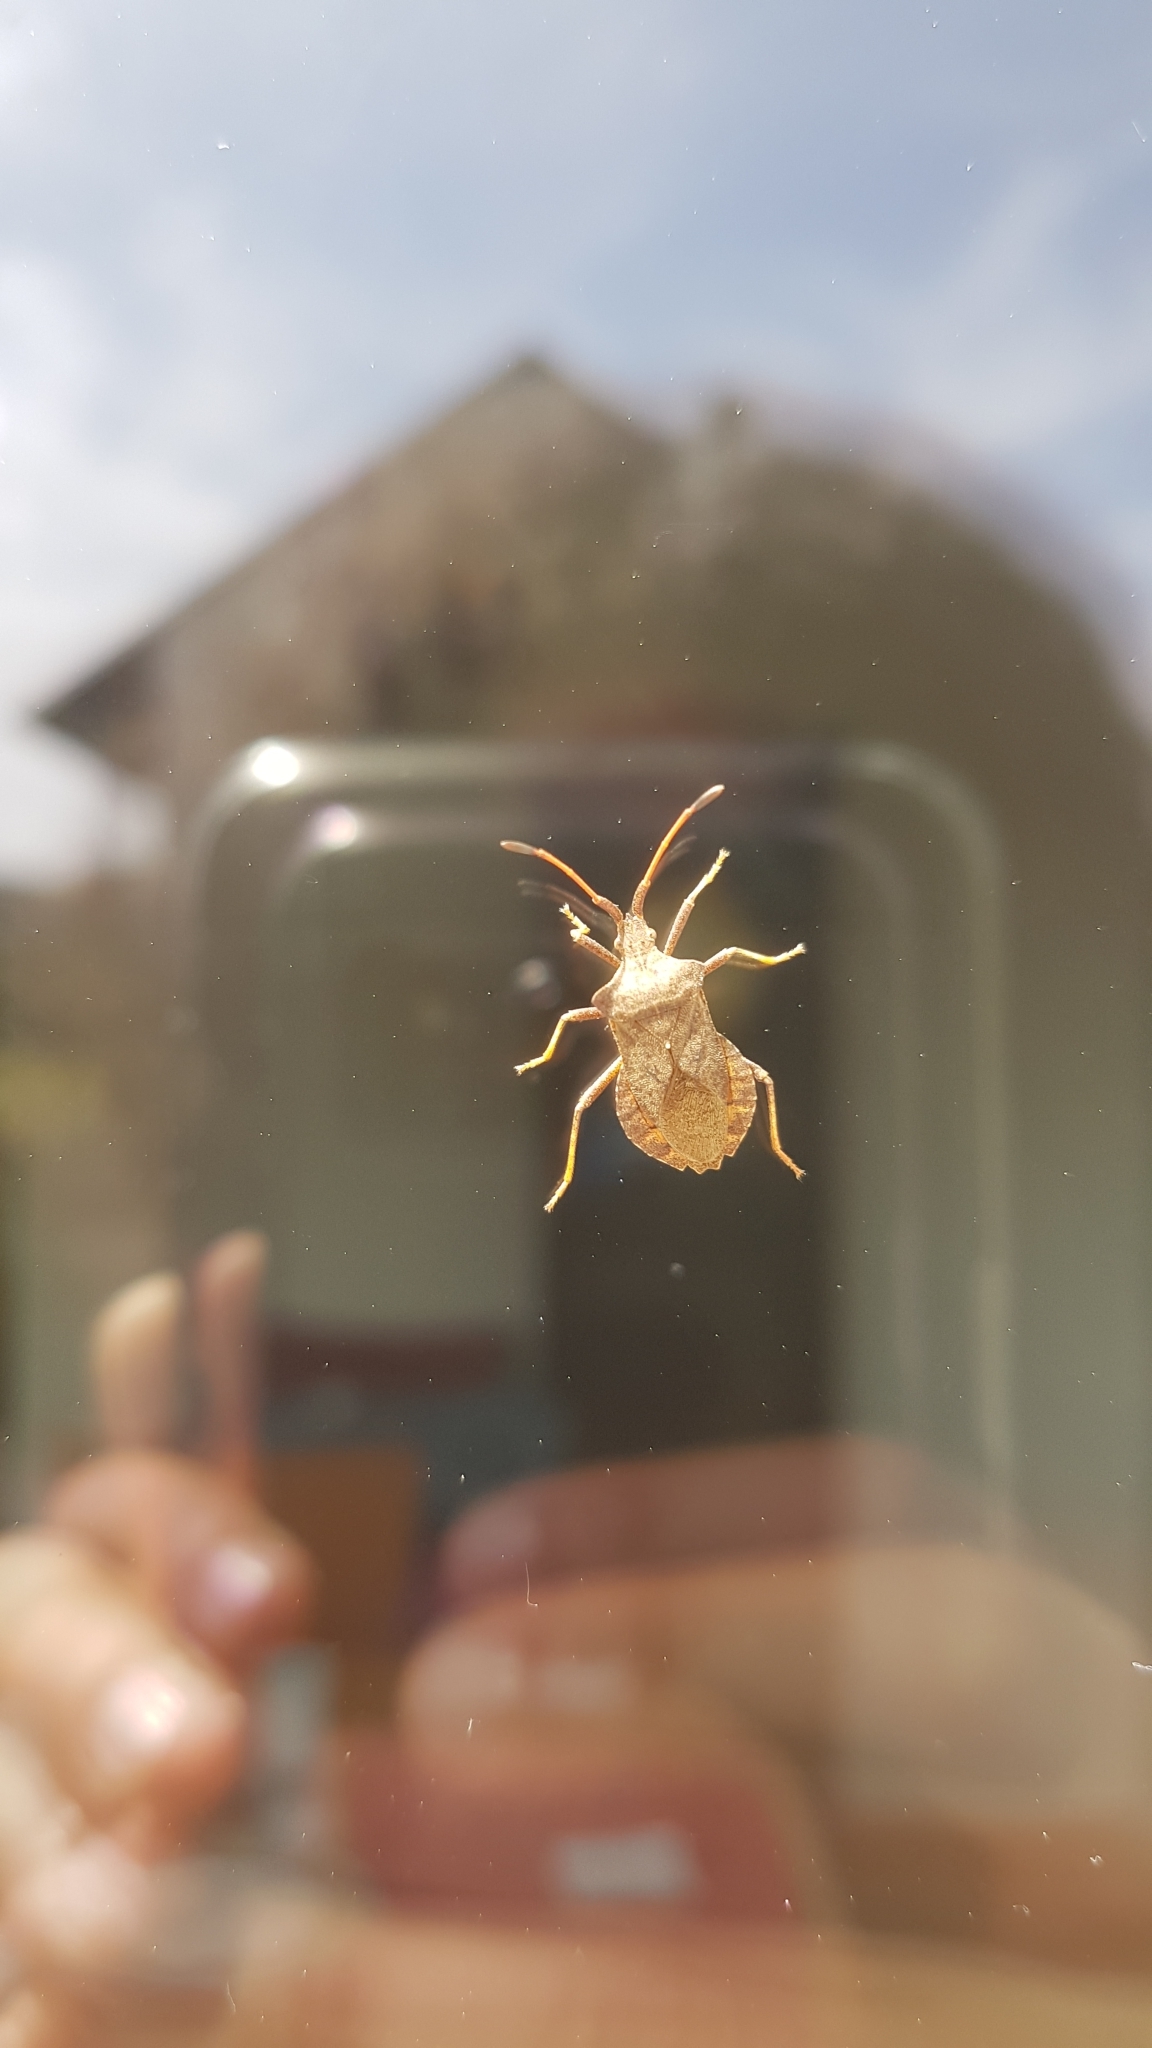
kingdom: Animalia
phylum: Arthropoda
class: Insecta
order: Hemiptera
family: Coreidae
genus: Coreus
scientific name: Coreus marginatus
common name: Dock bug
